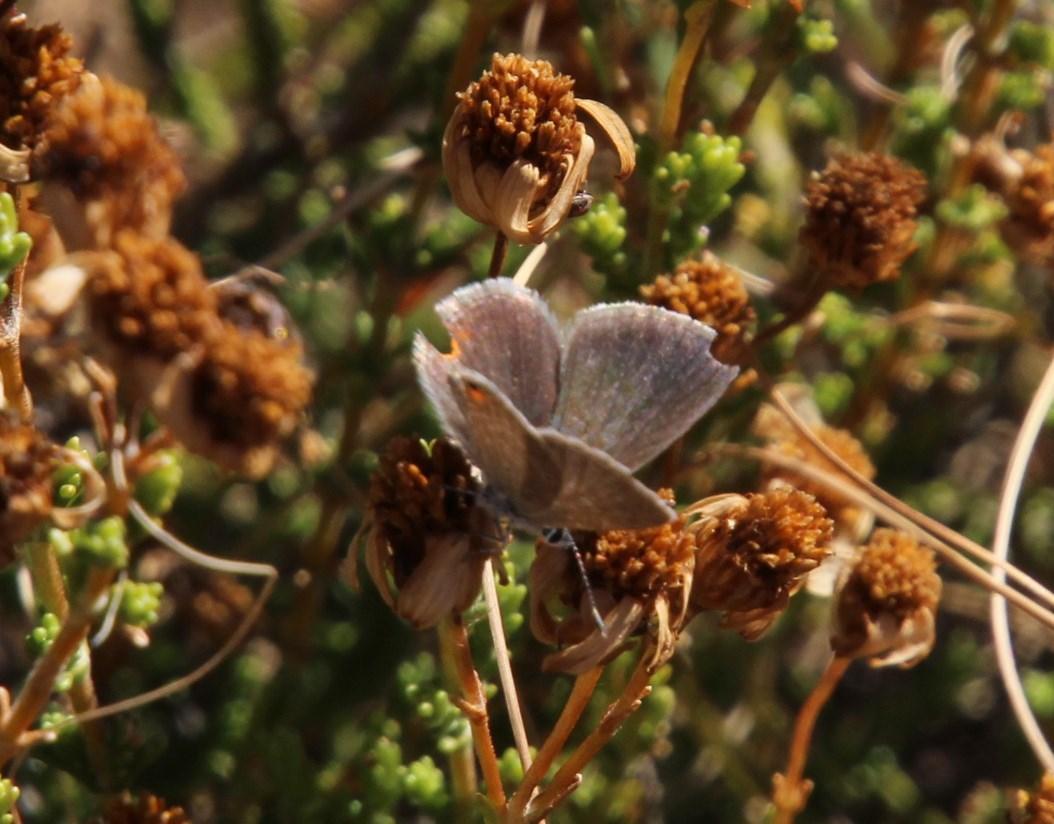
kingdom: Animalia
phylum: Arthropoda
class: Insecta
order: Lepidoptera
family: Lycaenidae
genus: Eicochrysops
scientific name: Eicochrysops messapus
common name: Cupreous blue
